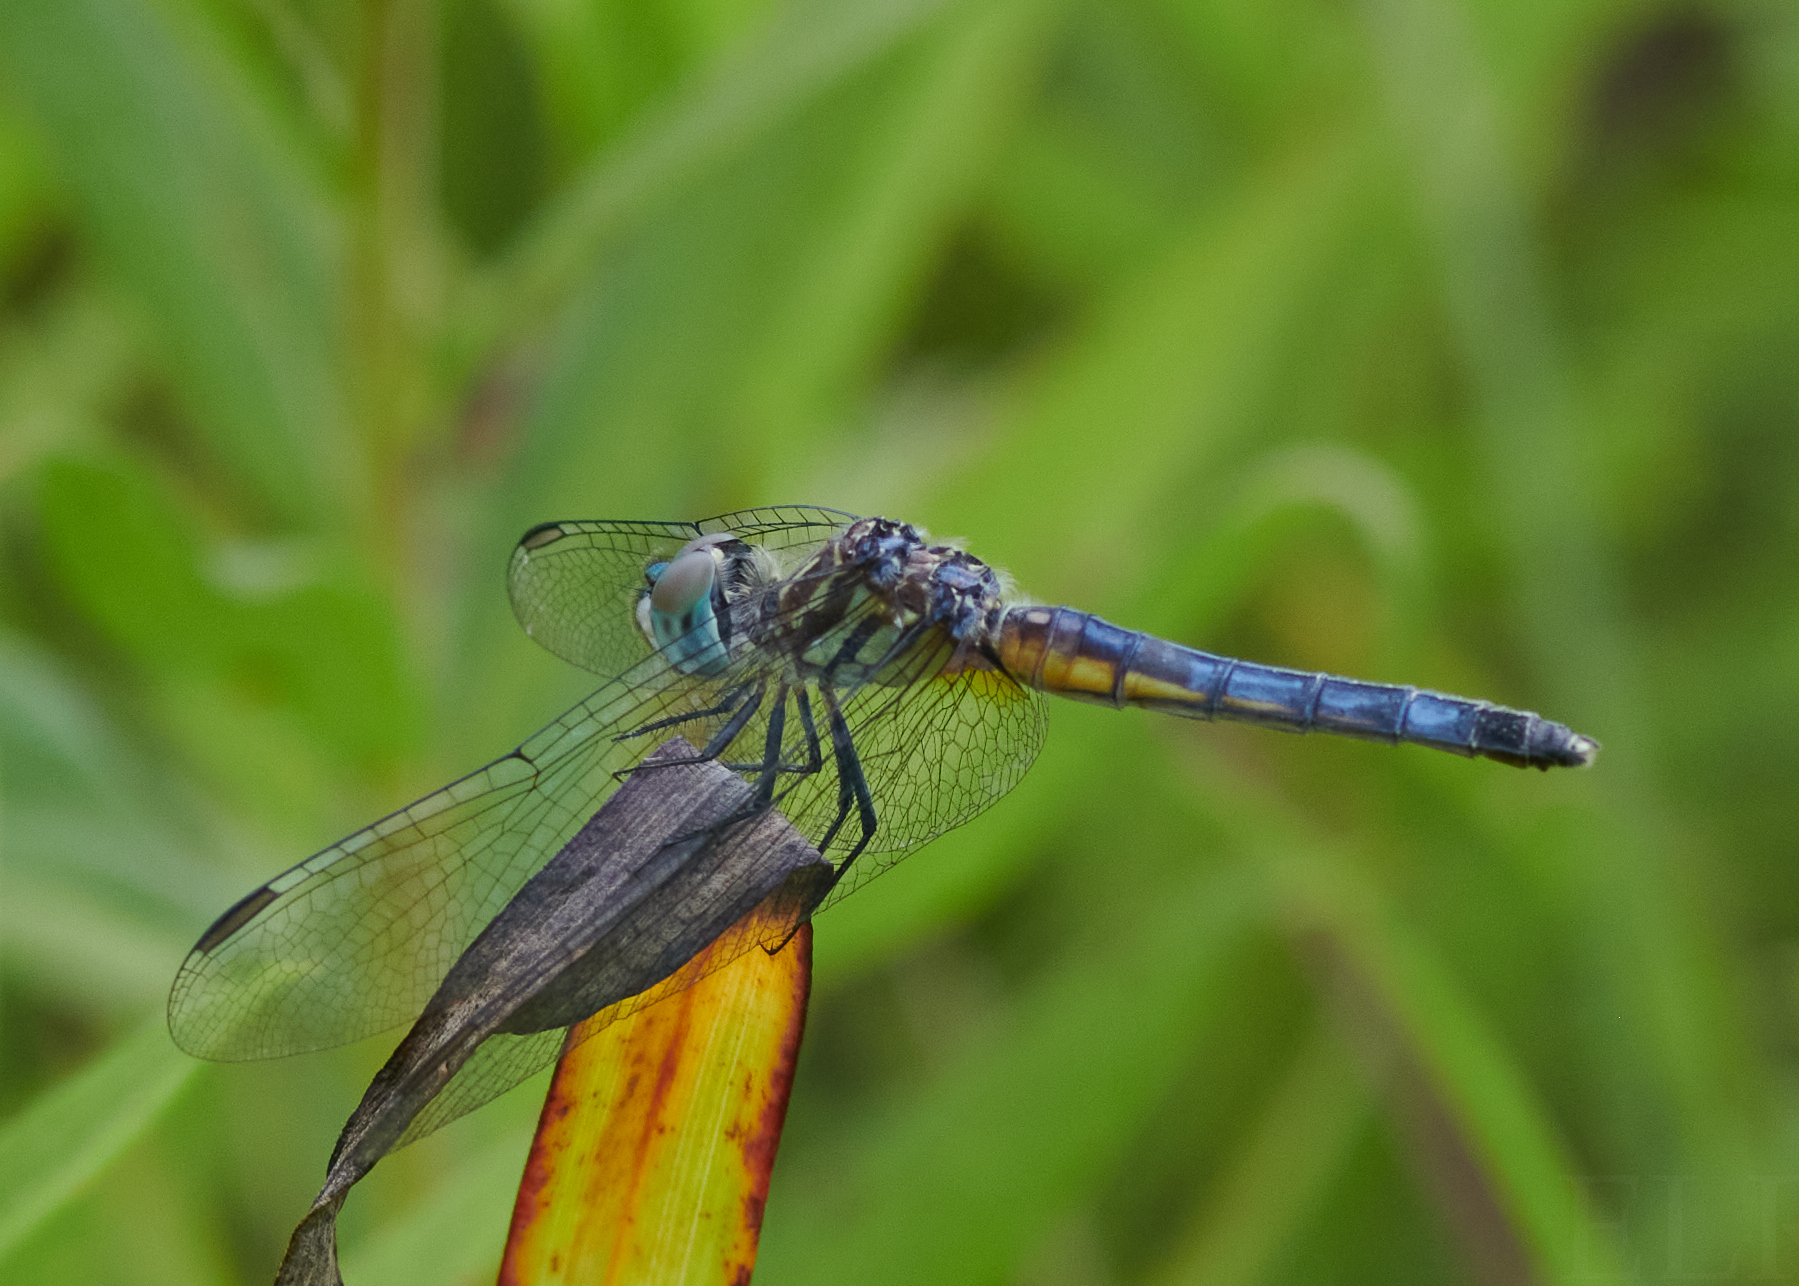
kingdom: Animalia
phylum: Arthropoda
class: Insecta
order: Odonata
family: Libellulidae
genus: Pachydiplax
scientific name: Pachydiplax longipennis
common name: Blue dasher
